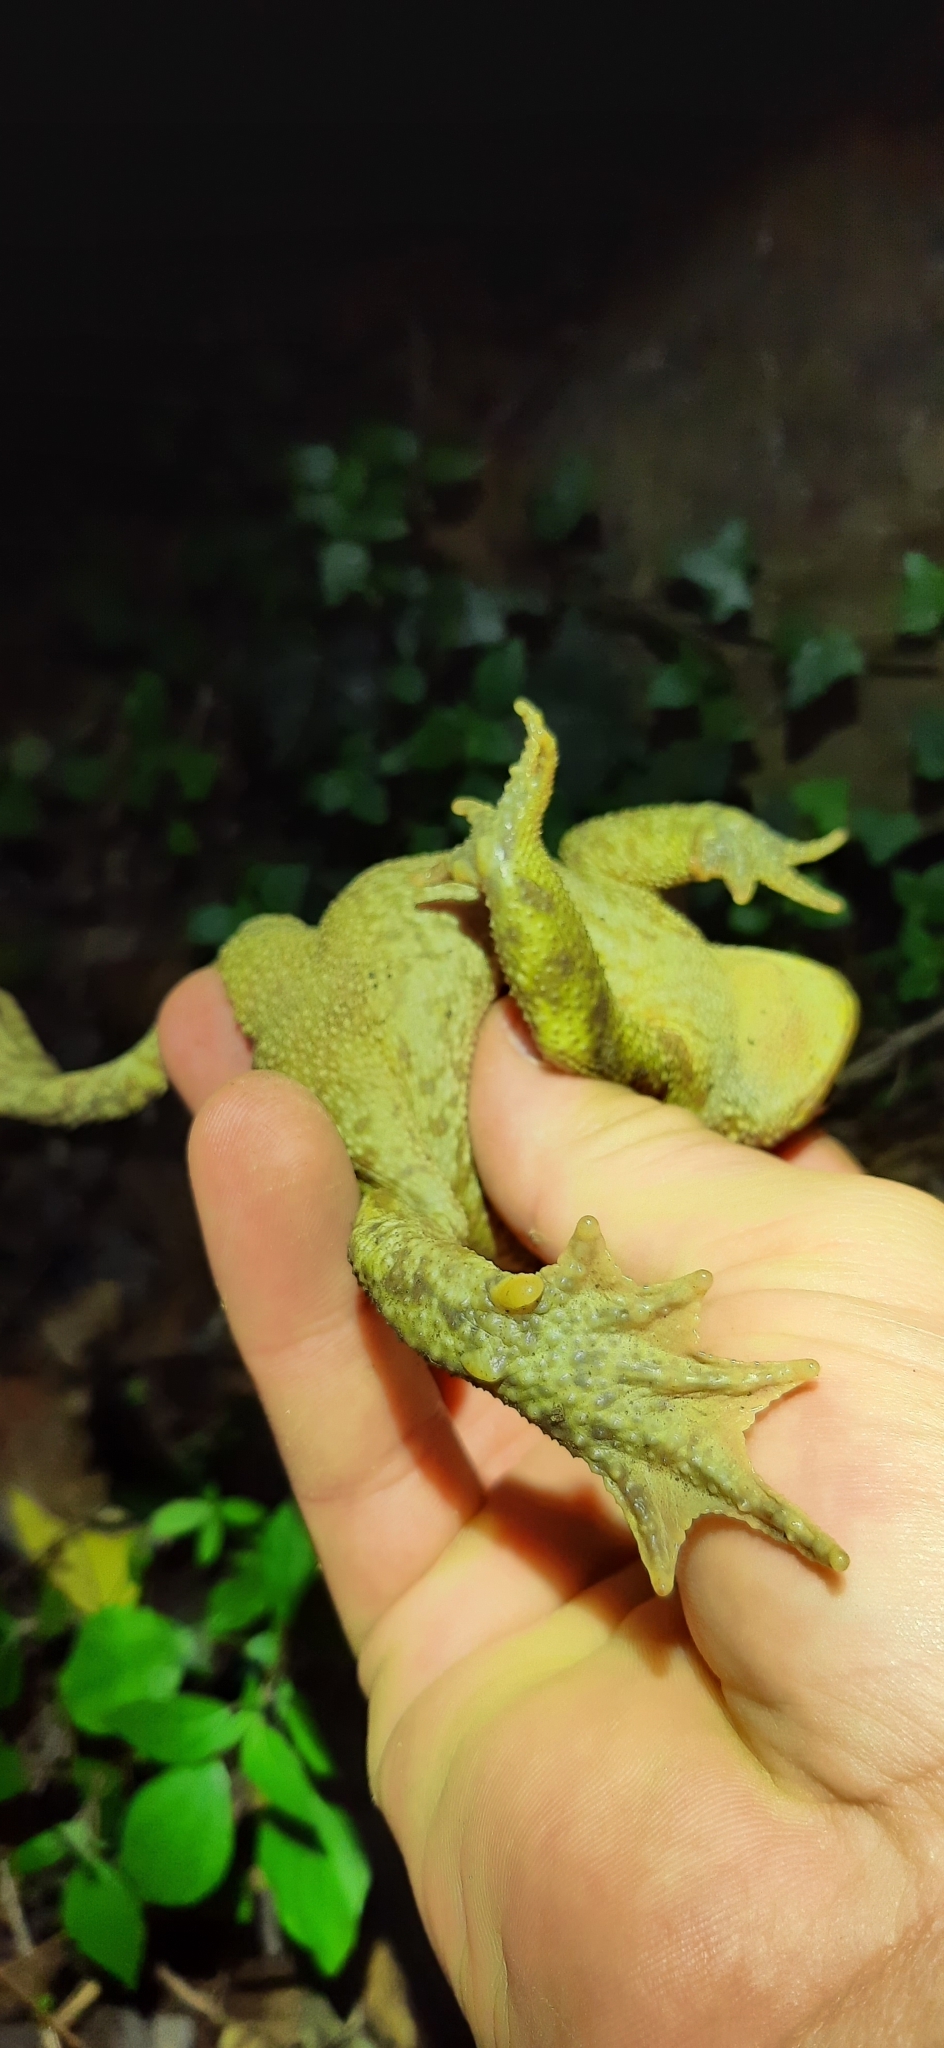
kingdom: Animalia
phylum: Chordata
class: Amphibia
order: Anura
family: Bufonidae
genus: Bufo
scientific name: Bufo bufo
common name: Common toad
